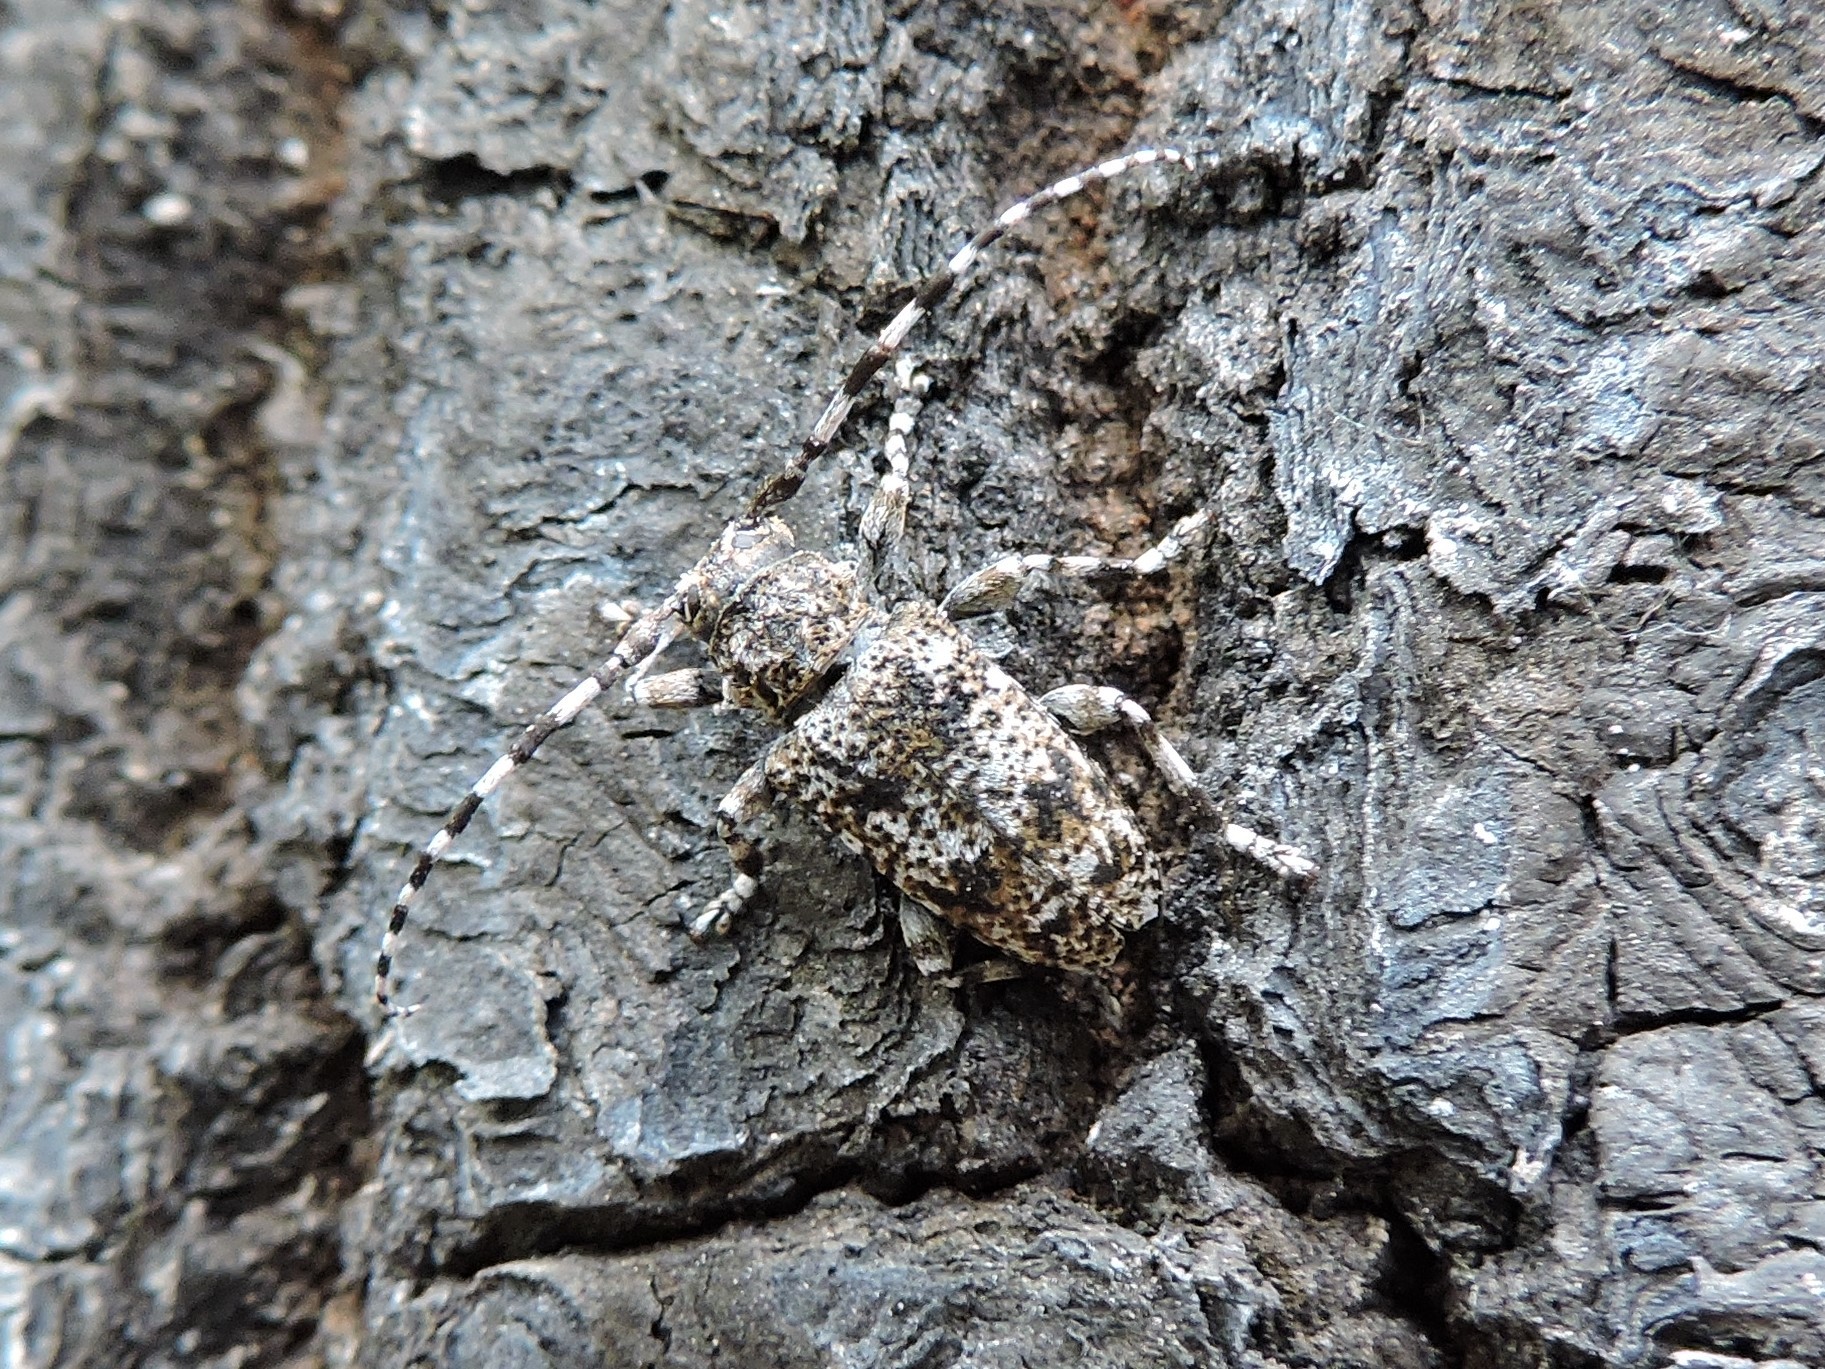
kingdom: Animalia
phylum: Arthropoda
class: Insecta
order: Coleoptera
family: Cerambycidae
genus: Aegomorphus
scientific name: Aegomorphus clavipes
